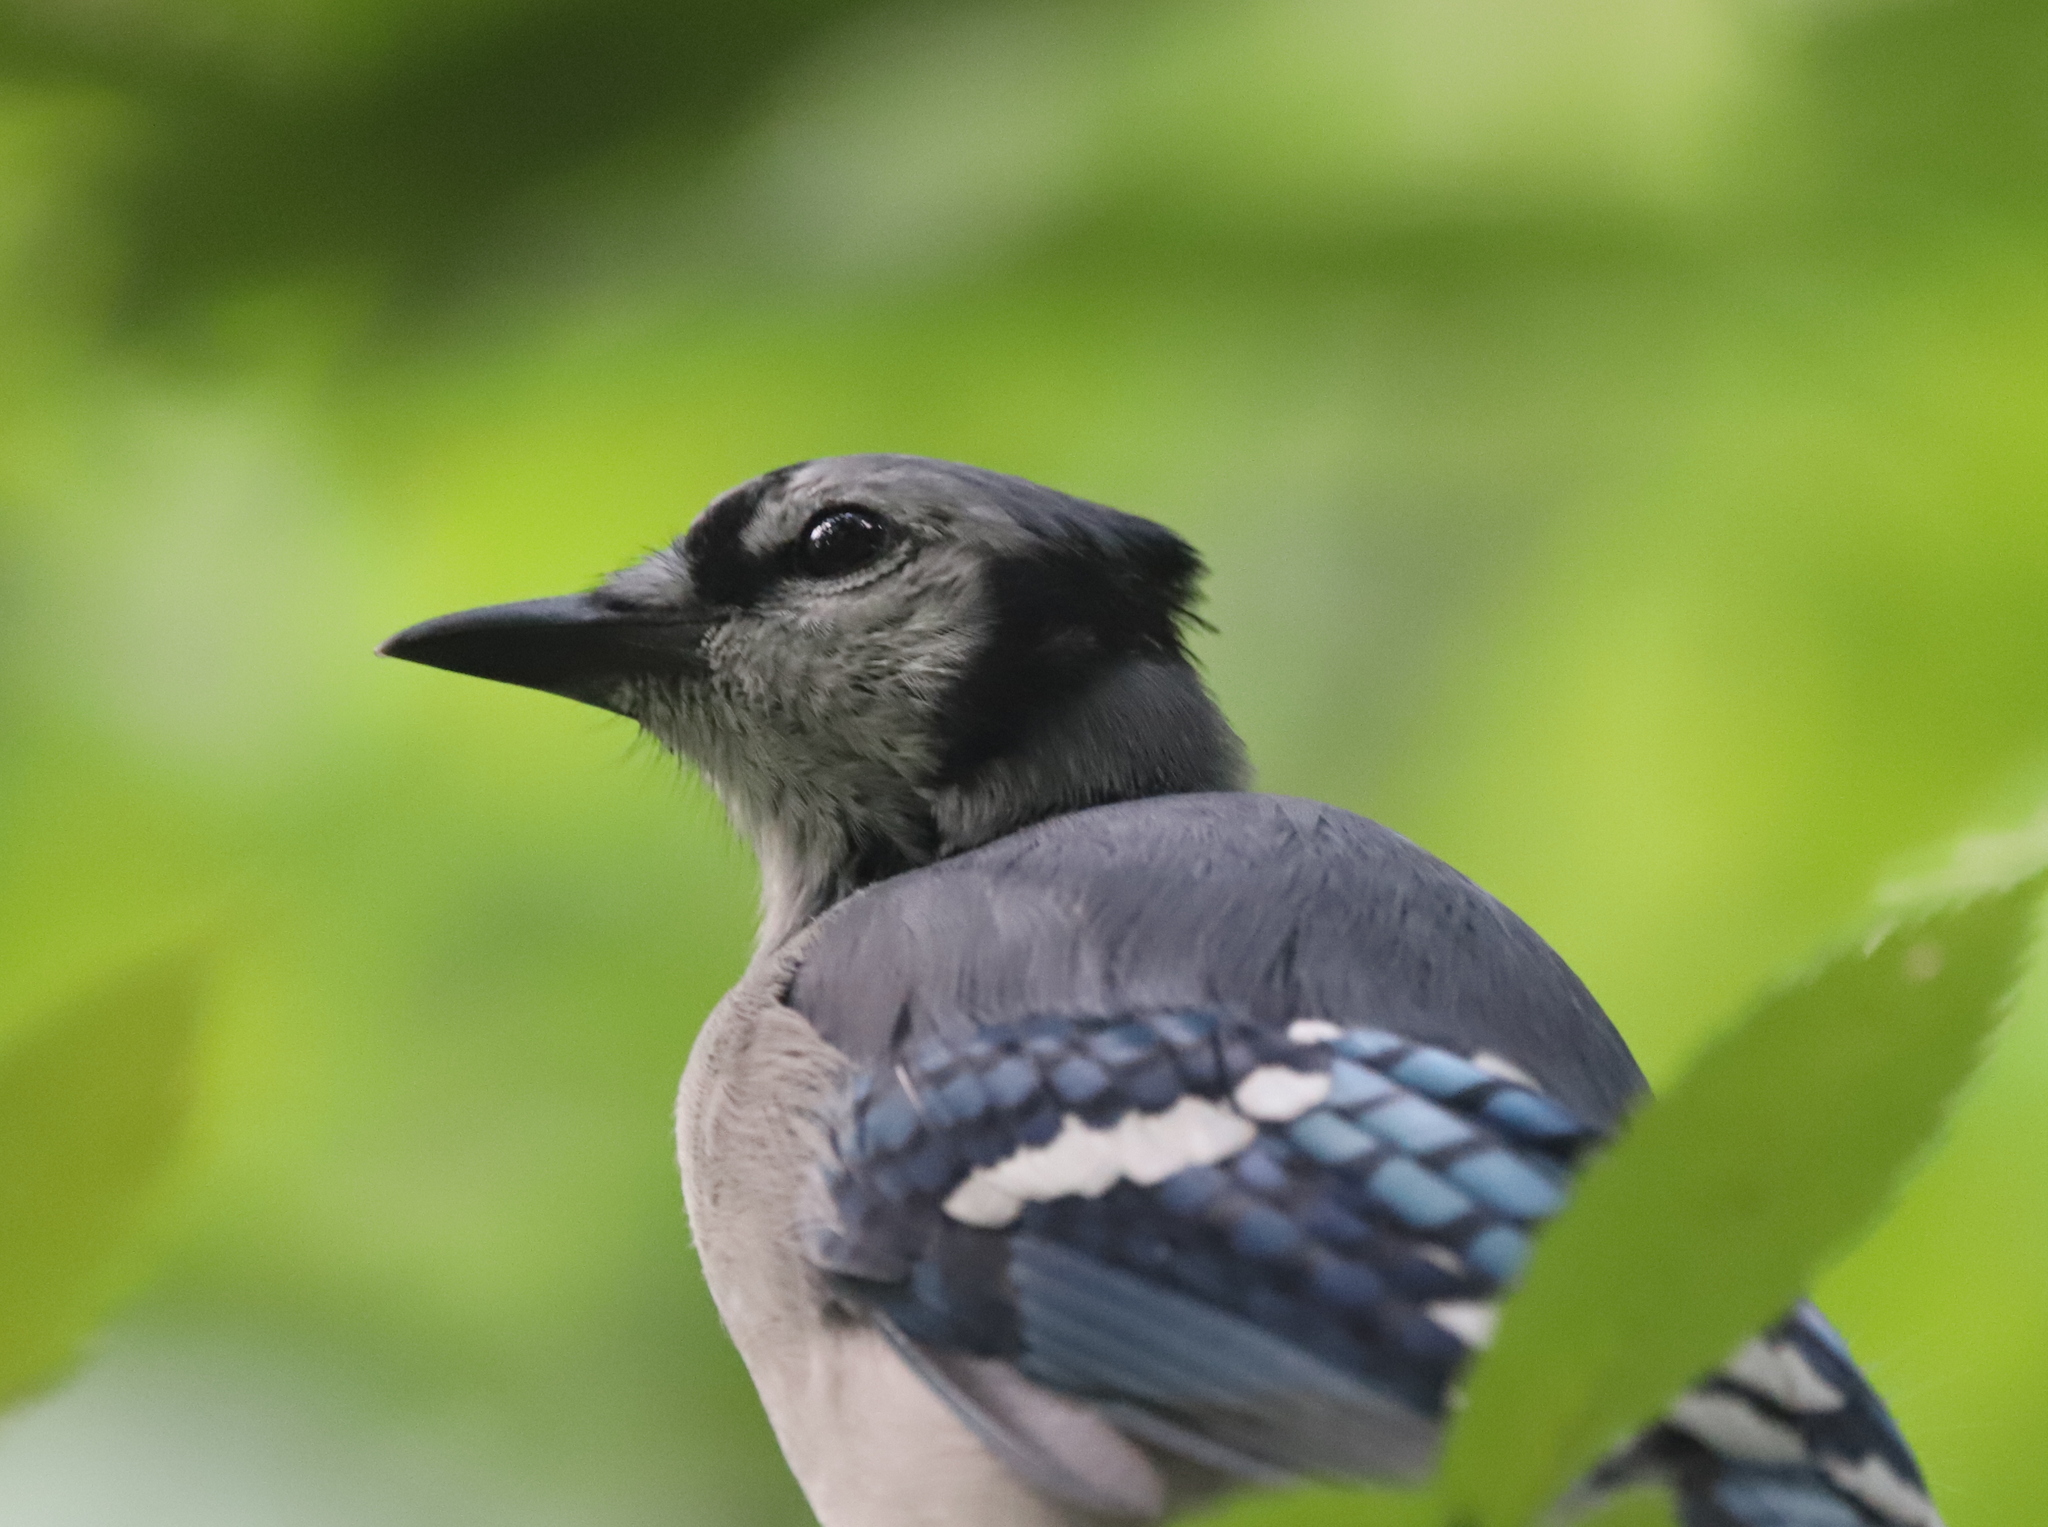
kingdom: Animalia
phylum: Chordata
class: Aves
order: Passeriformes
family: Corvidae
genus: Cyanocitta
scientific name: Cyanocitta cristata
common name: Blue jay
